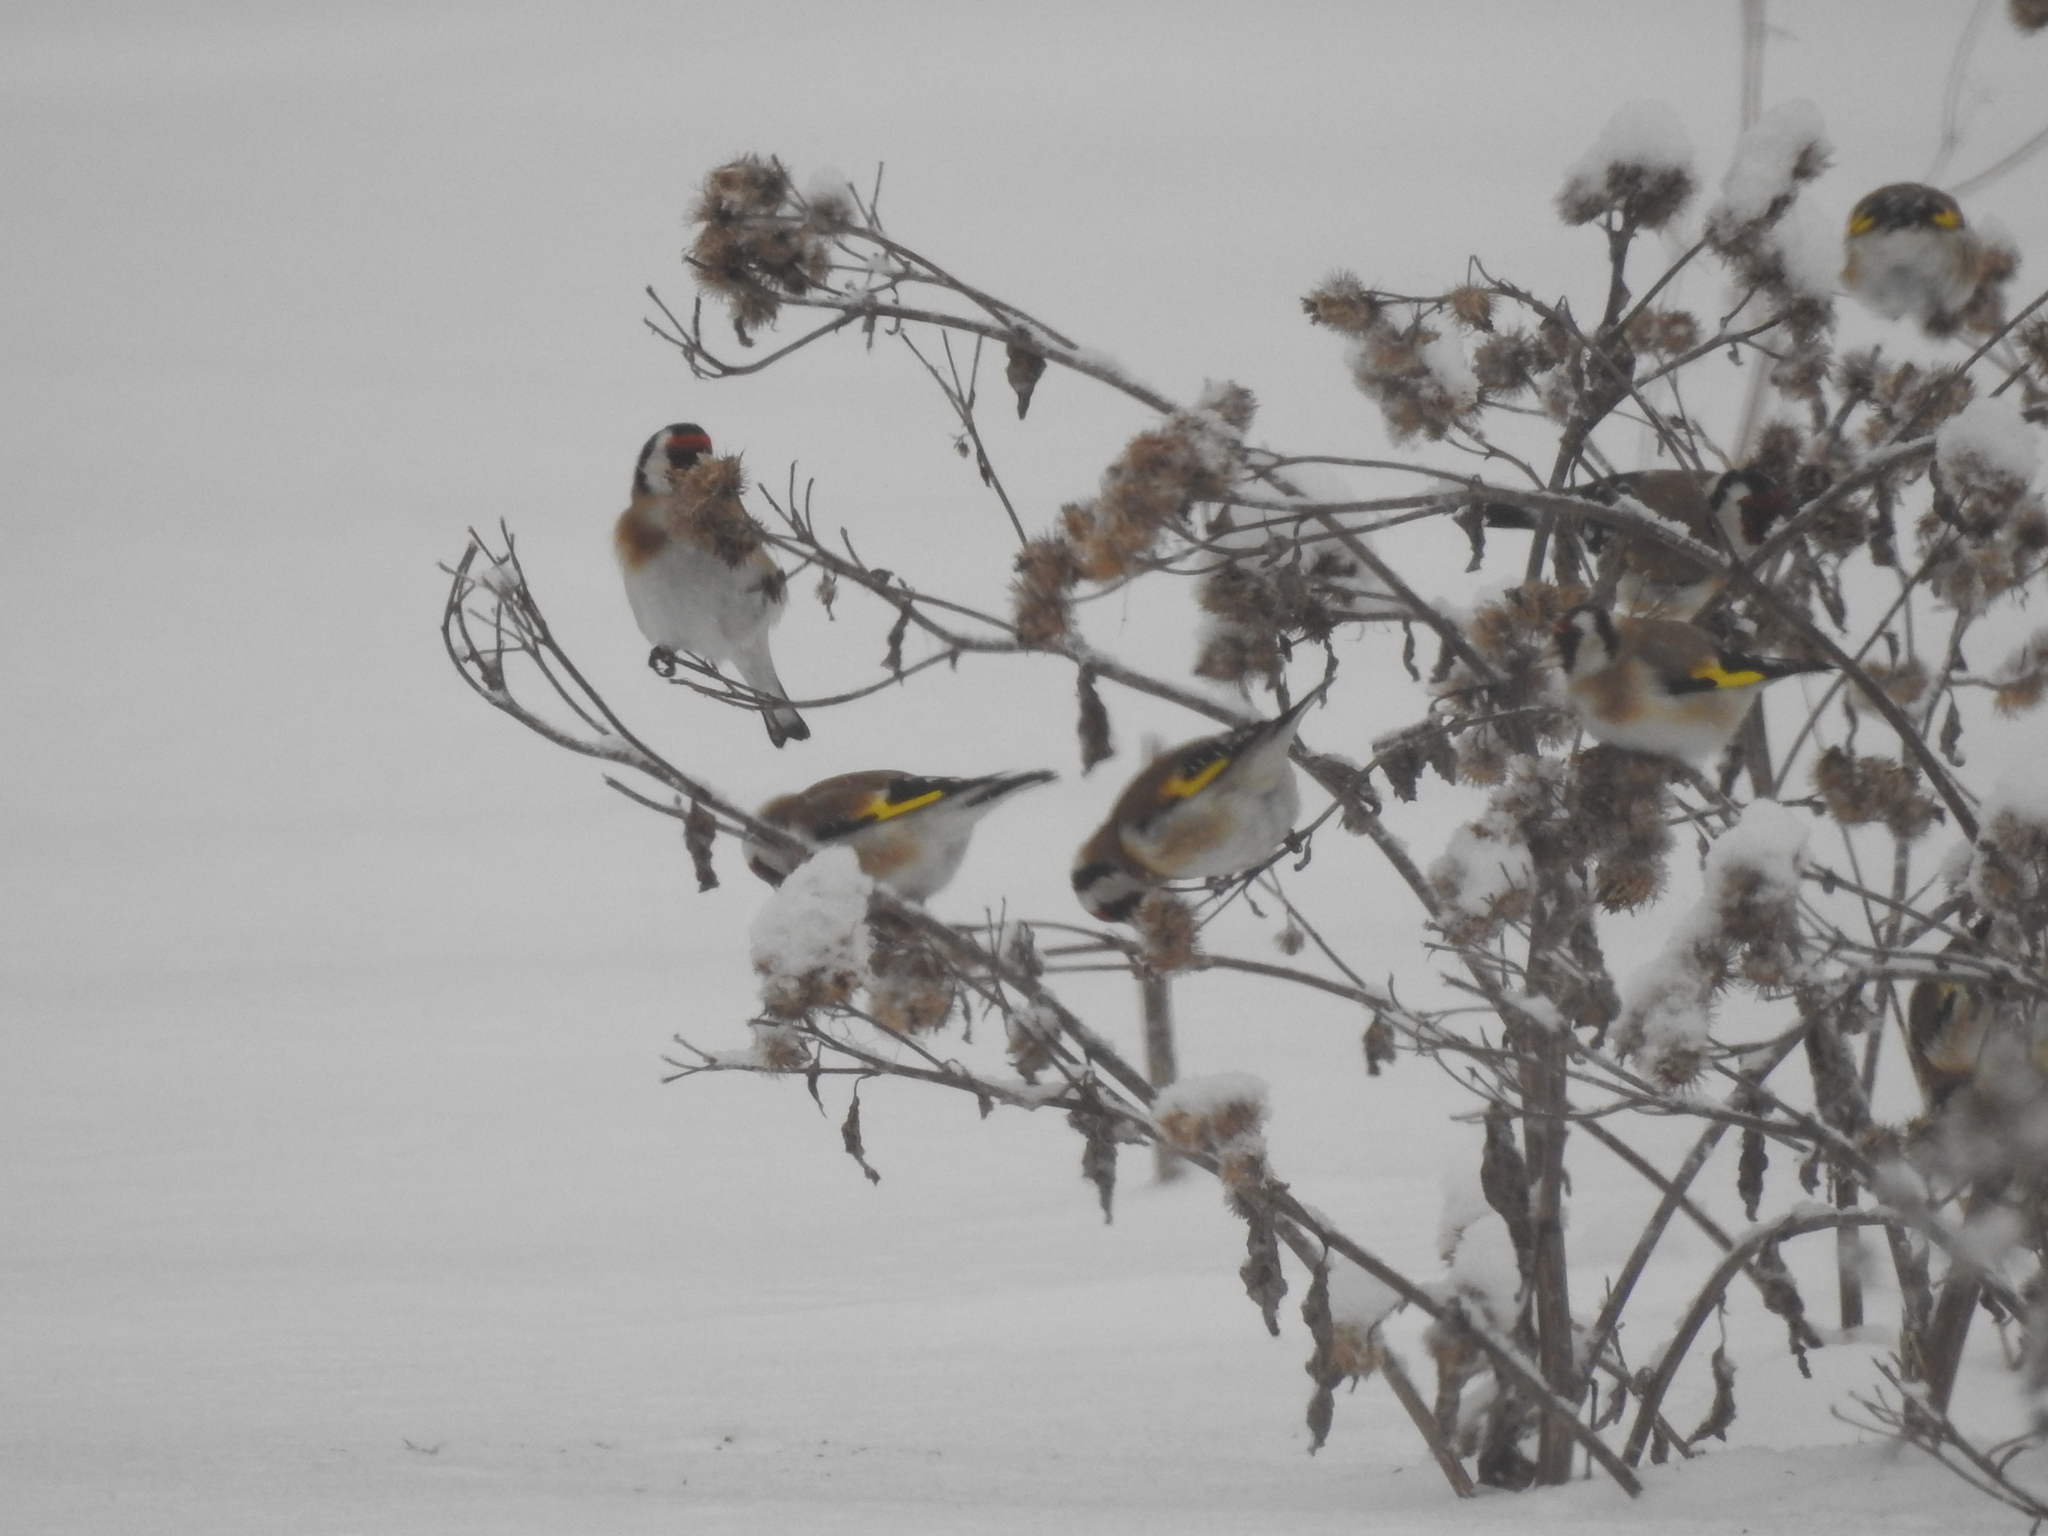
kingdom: Animalia
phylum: Chordata
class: Aves
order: Passeriformes
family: Fringillidae
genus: Carduelis
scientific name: Carduelis carduelis
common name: European goldfinch
